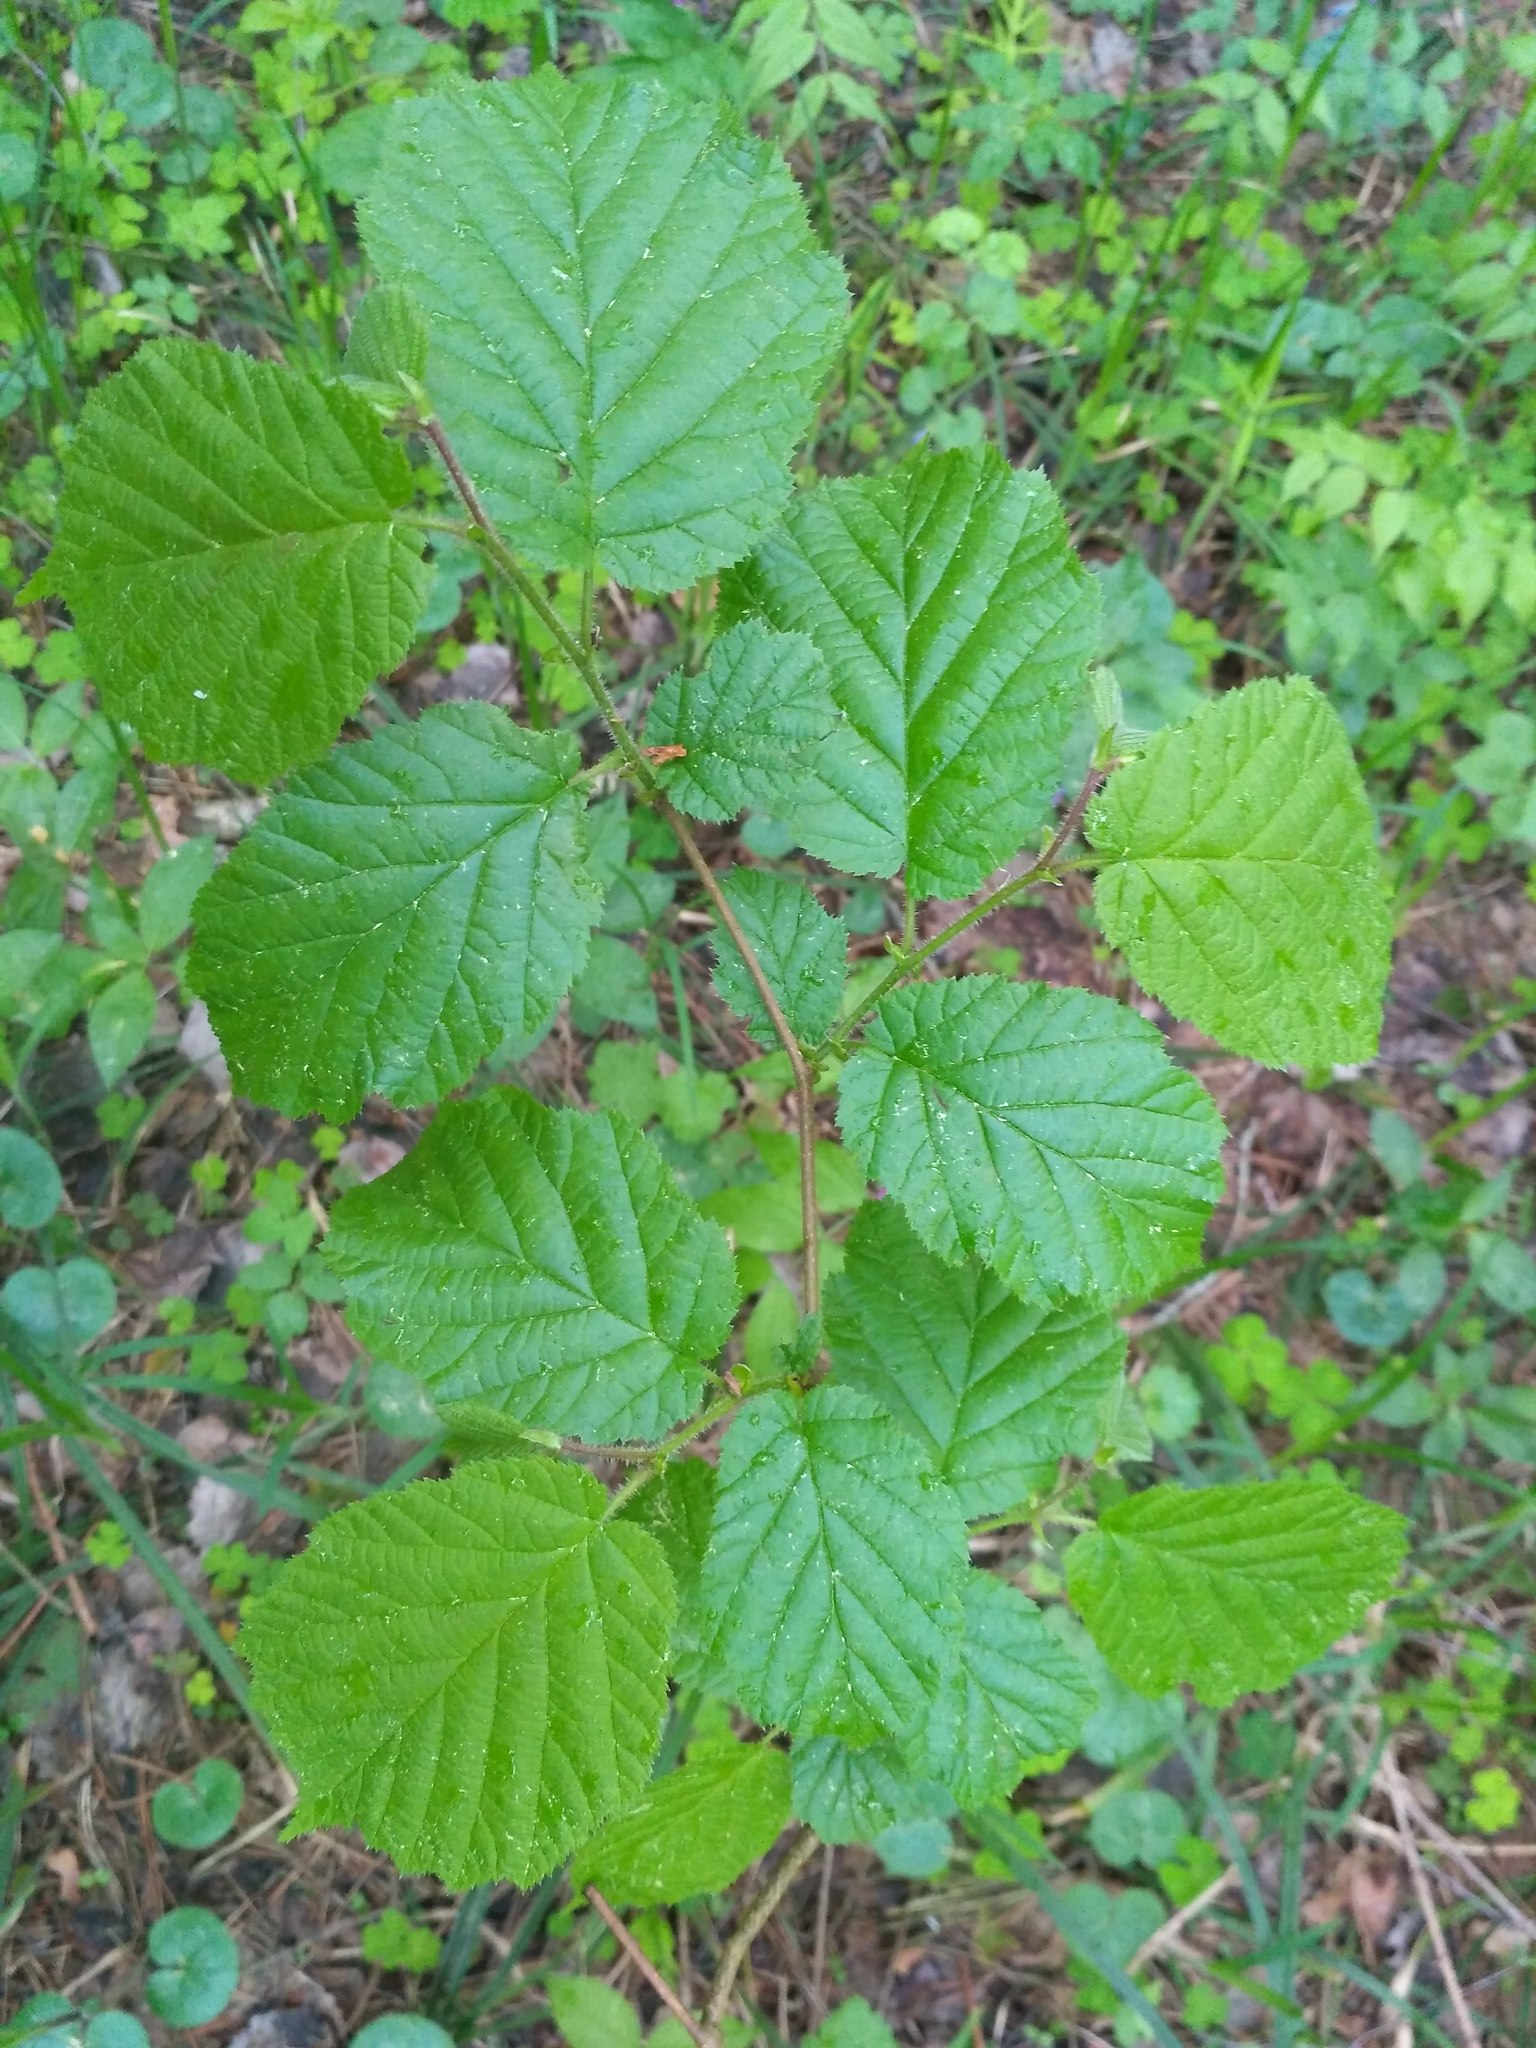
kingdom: Plantae
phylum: Tracheophyta
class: Magnoliopsida
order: Fagales
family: Betulaceae
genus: Corylus
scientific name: Corylus avellana
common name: European hazel
